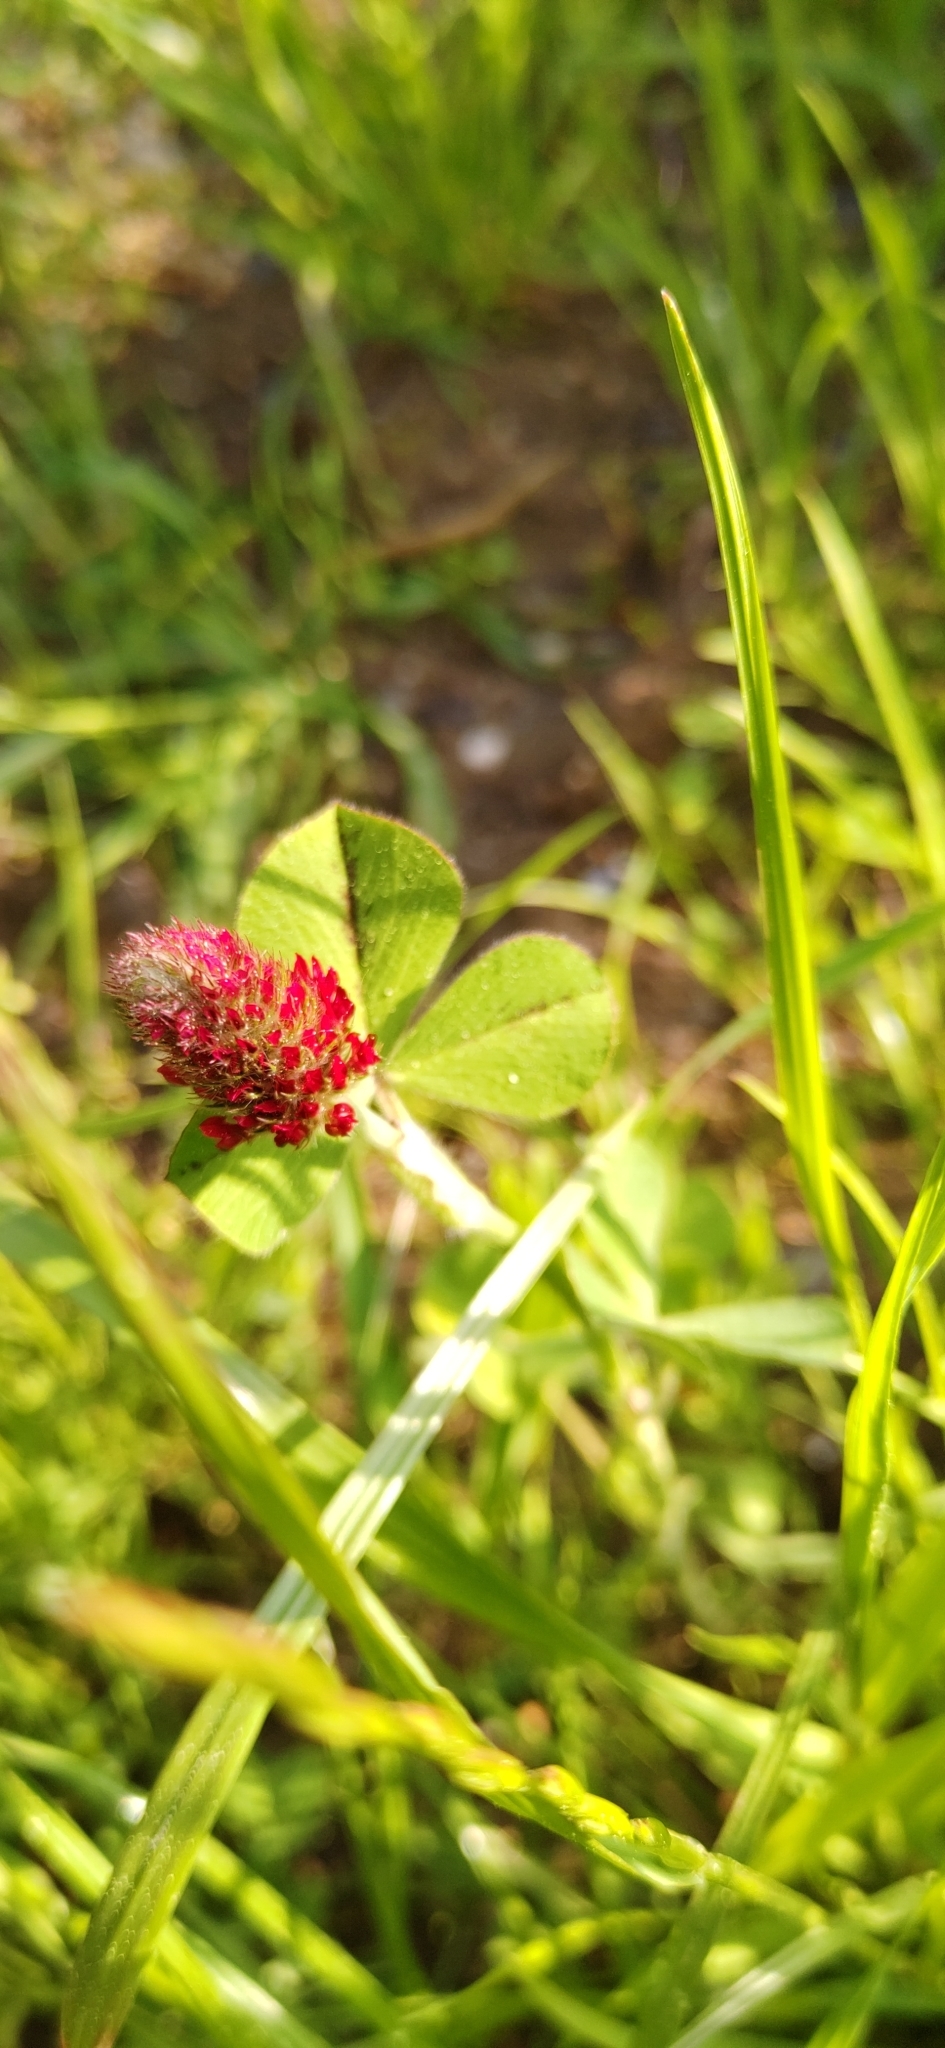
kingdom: Plantae
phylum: Tracheophyta
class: Magnoliopsida
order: Fabales
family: Fabaceae
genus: Trifolium
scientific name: Trifolium incarnatum
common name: Crimson clover
